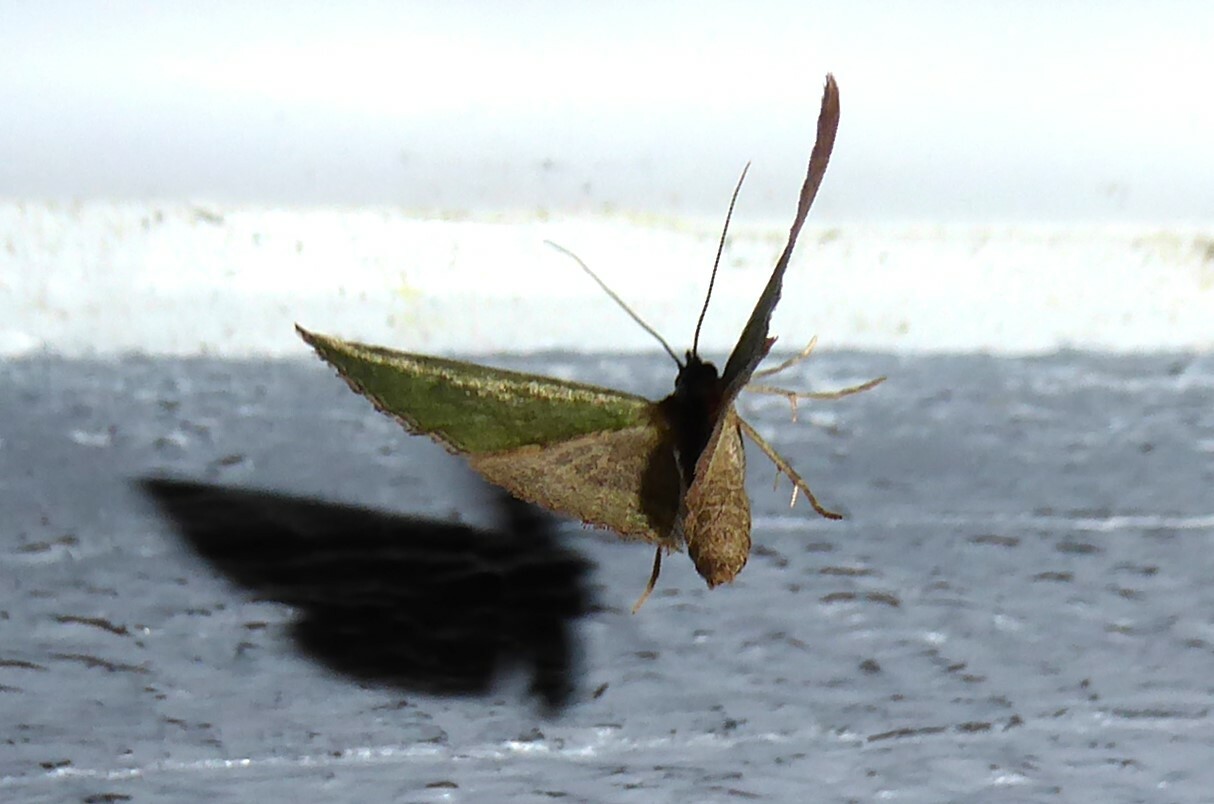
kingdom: Animalia
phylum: Arthropoda
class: Insecta
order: Lepidoptera
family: Geometridae
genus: Epyaxa
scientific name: Epyaxa rosearia
